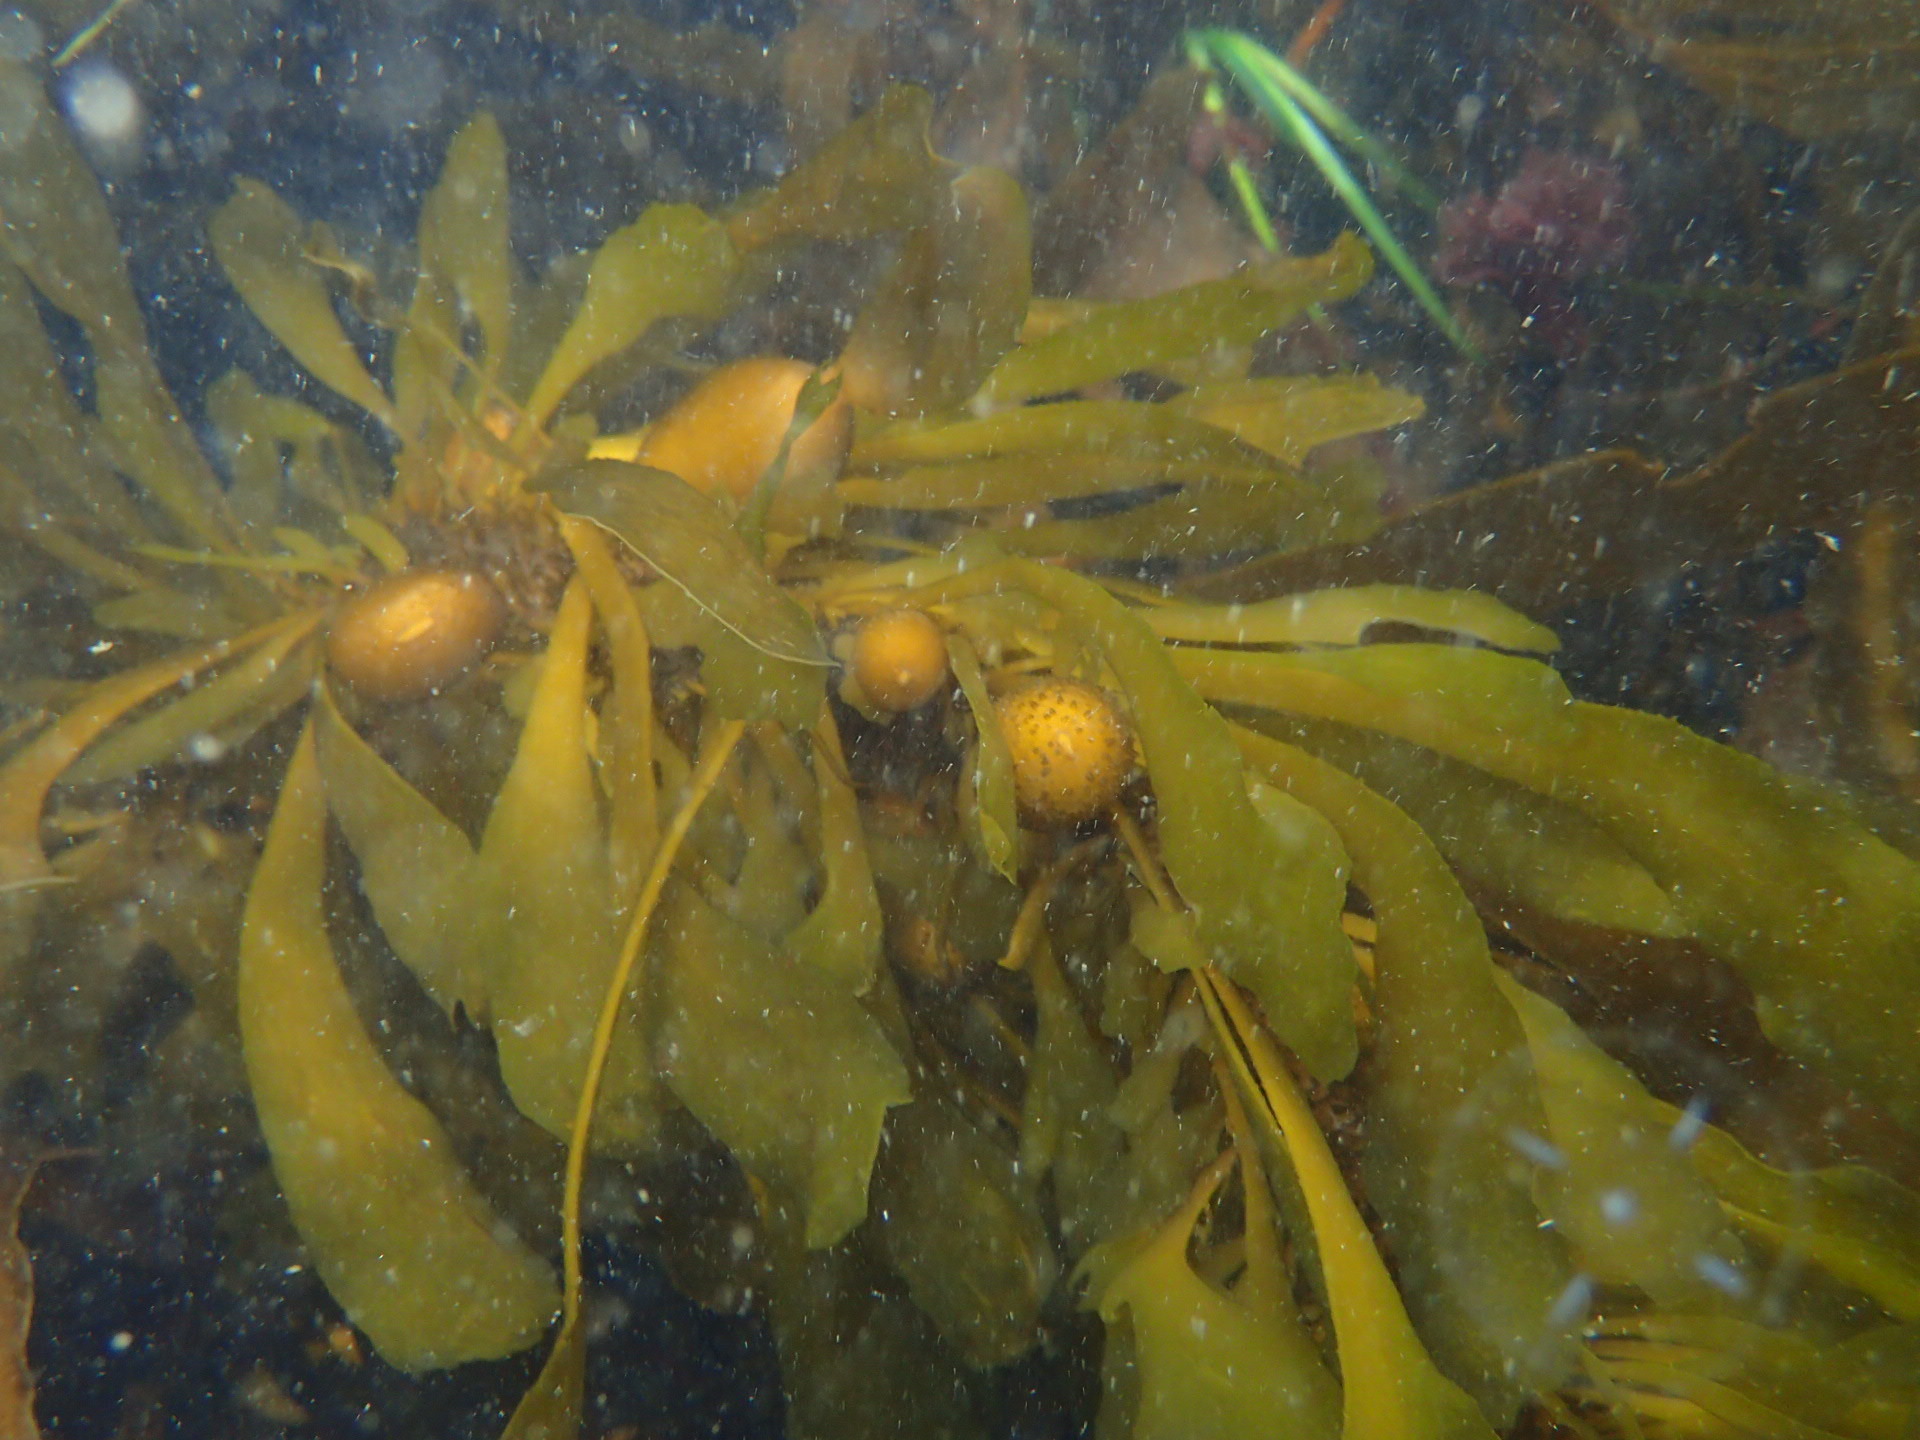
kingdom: Chromista
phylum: Ochrophyta
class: Phaeophyceae
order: Laminariales
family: Lessoniaceae
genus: Egregia
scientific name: Egregia menziesii
